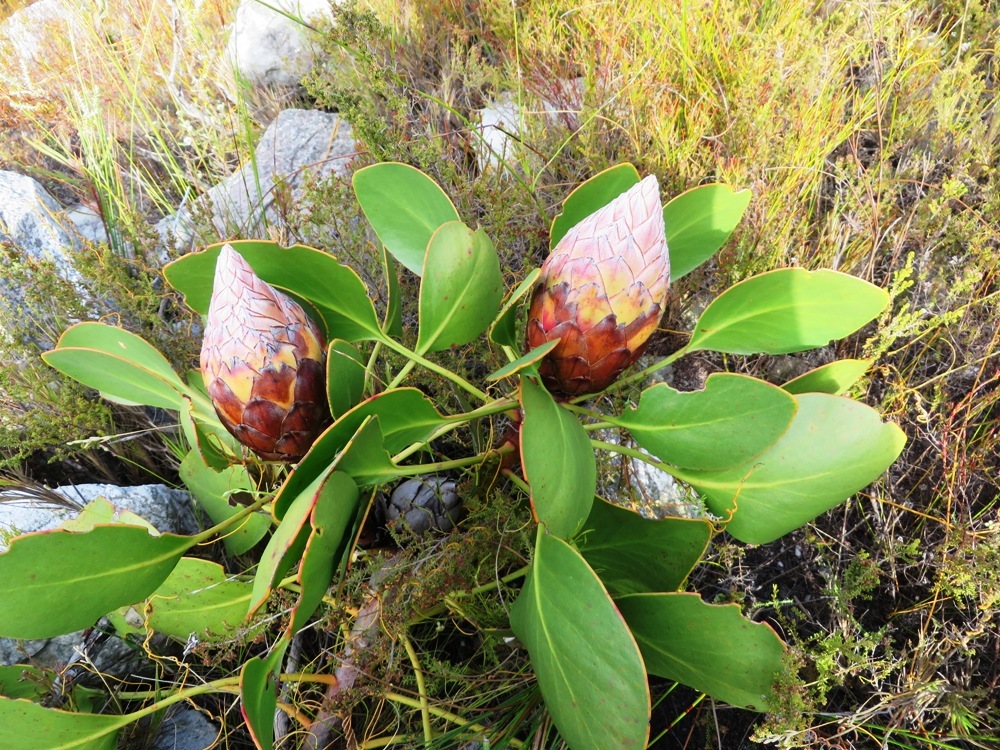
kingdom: Plantae
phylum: Tracheophyta
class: Magnoliopsida
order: Proteales
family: Proteaceae
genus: Protea
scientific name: Protea cynaroides
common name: King protea
